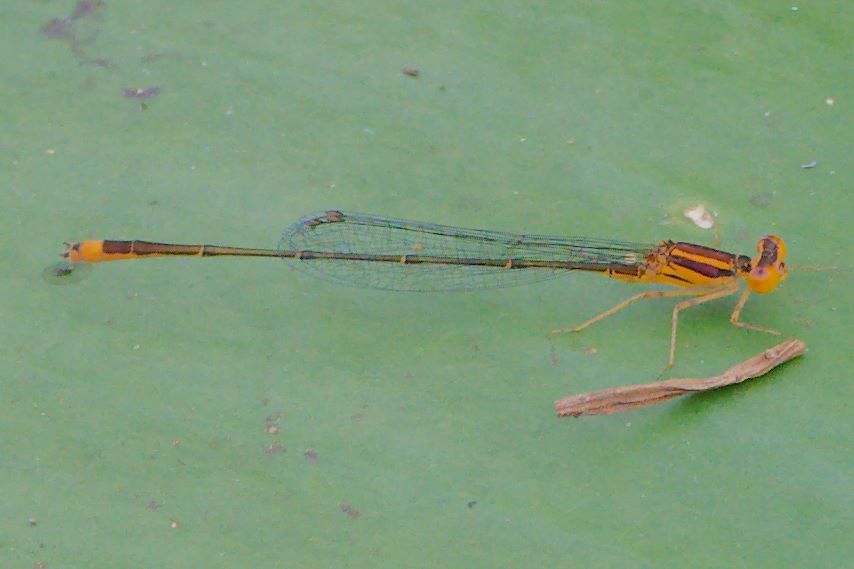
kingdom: Animalia
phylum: Arthropoda
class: Insecta
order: Odonata
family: Coenagrionidae
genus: Enallagma
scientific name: Enallagma pollutum
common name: Florida bluet
